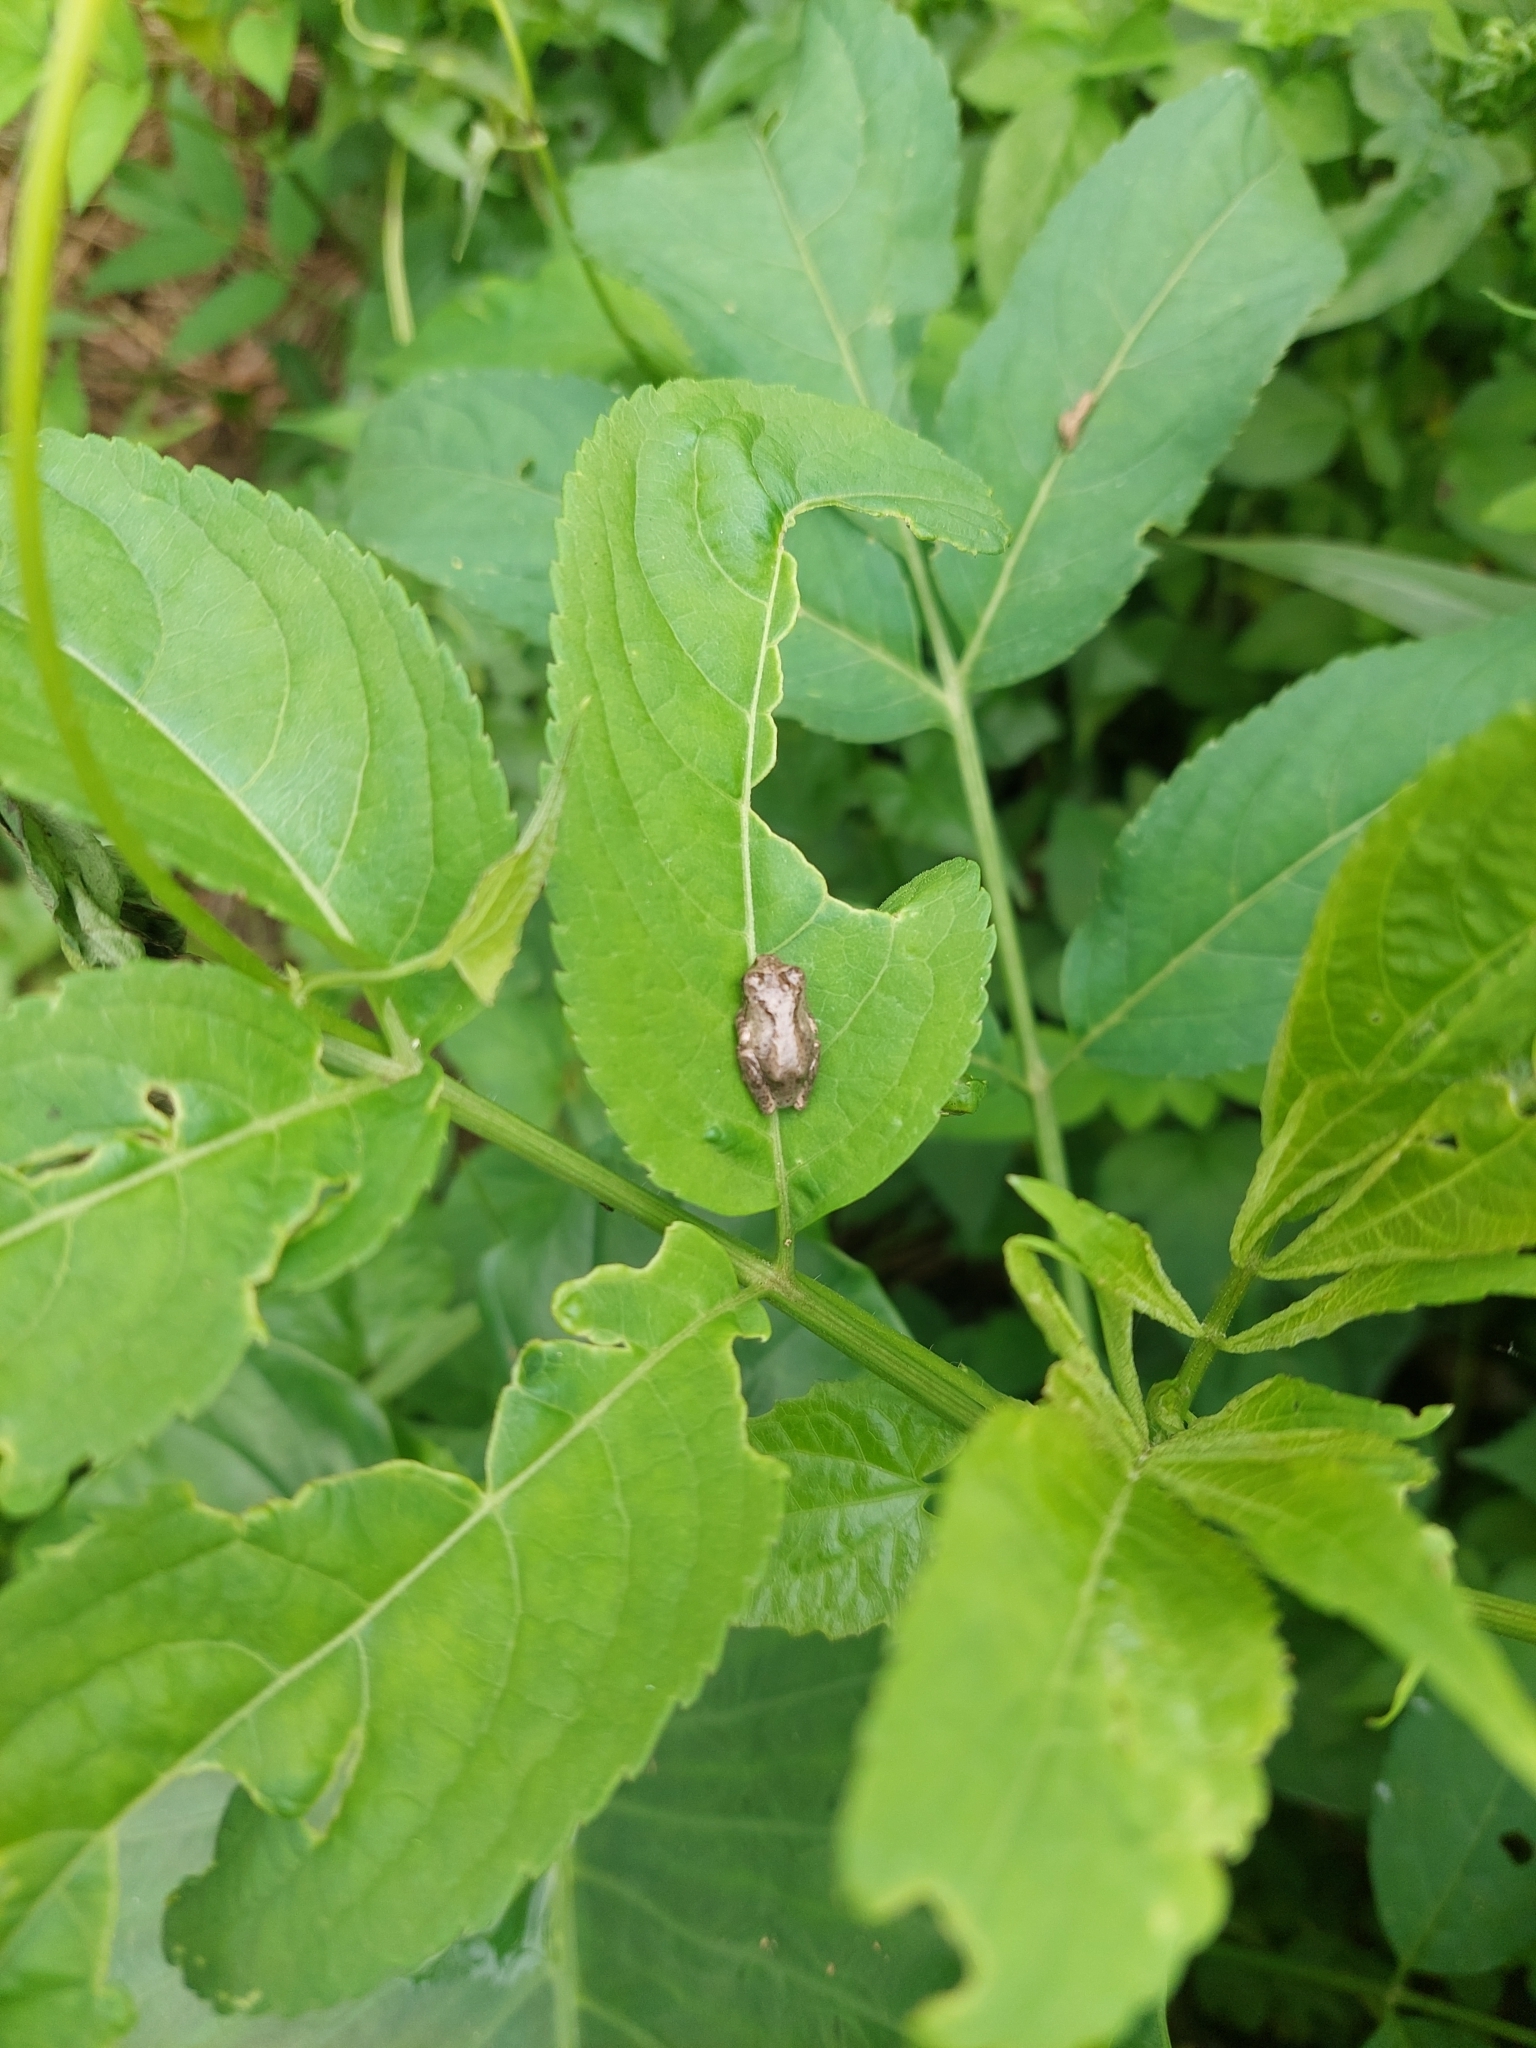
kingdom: Animalia
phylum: Chordata
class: Amphibia
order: Anura
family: Rhacophoridae
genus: Kurixalus
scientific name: Kurixalus idiootocus
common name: Temple treefrog
